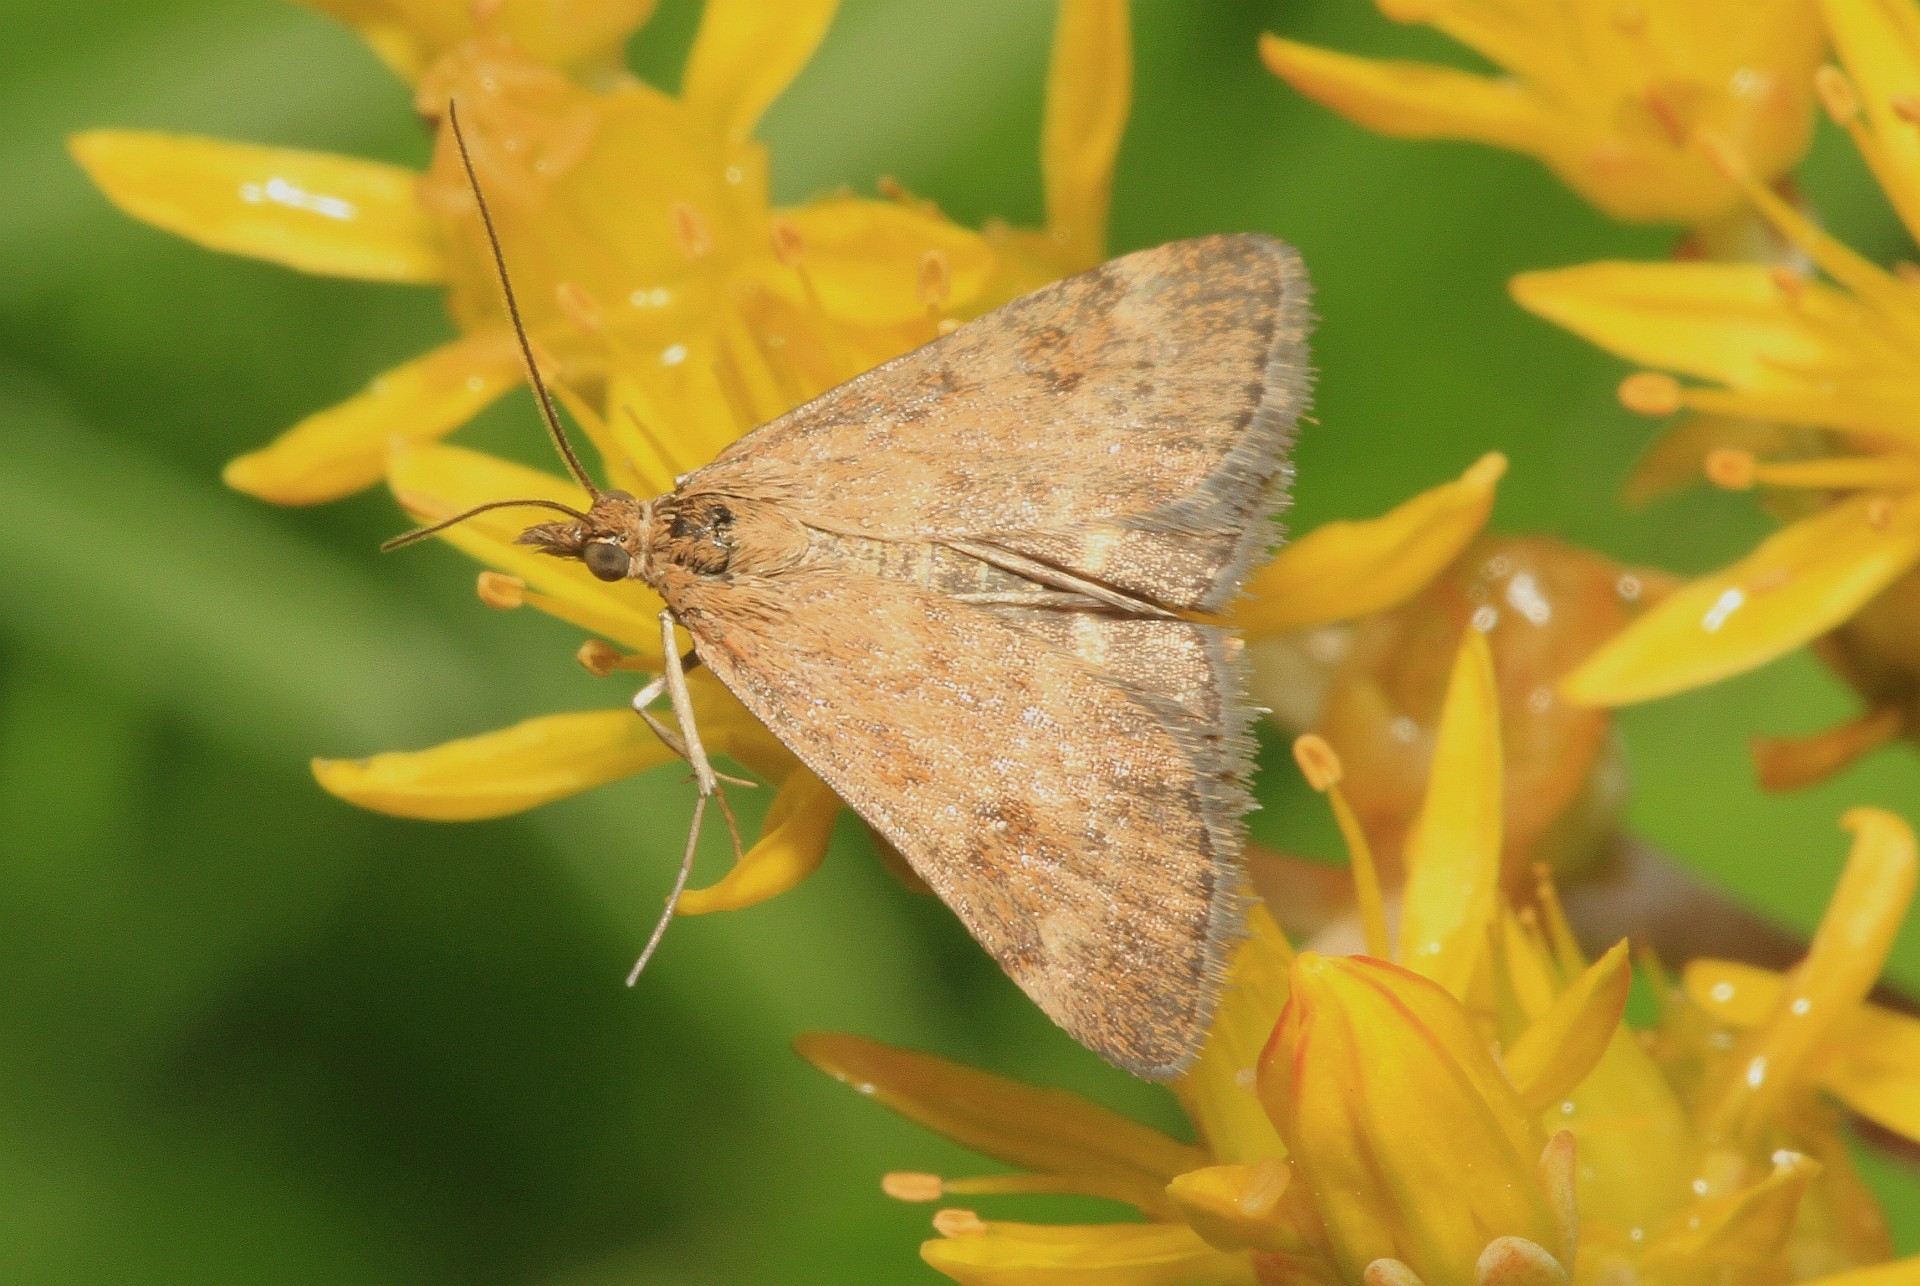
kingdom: Animalia
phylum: Arthropoda
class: Insecta
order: Lepidoptera
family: Crambidae
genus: Pyrausta
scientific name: Pyrausta despicata
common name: Straw-barred pearl
